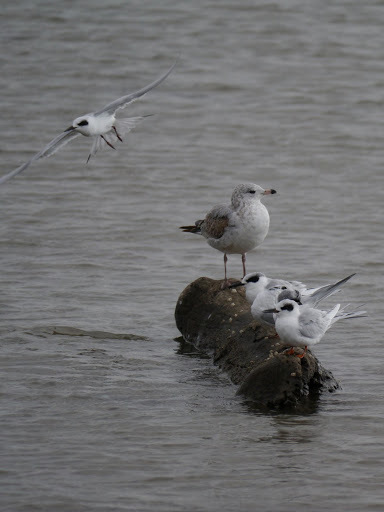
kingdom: Animalia
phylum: Chordata
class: Aves
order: Charadriiformes
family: Laridae
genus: Sterna
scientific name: Sterna forsteri
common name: Forster's tern
